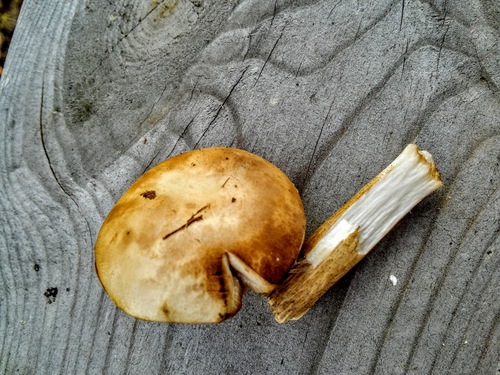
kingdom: Fungi
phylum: Basidiomycota
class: Agaricomycetes
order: Boletales
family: Boletaceae
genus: Leccinum
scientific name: Leccinum
